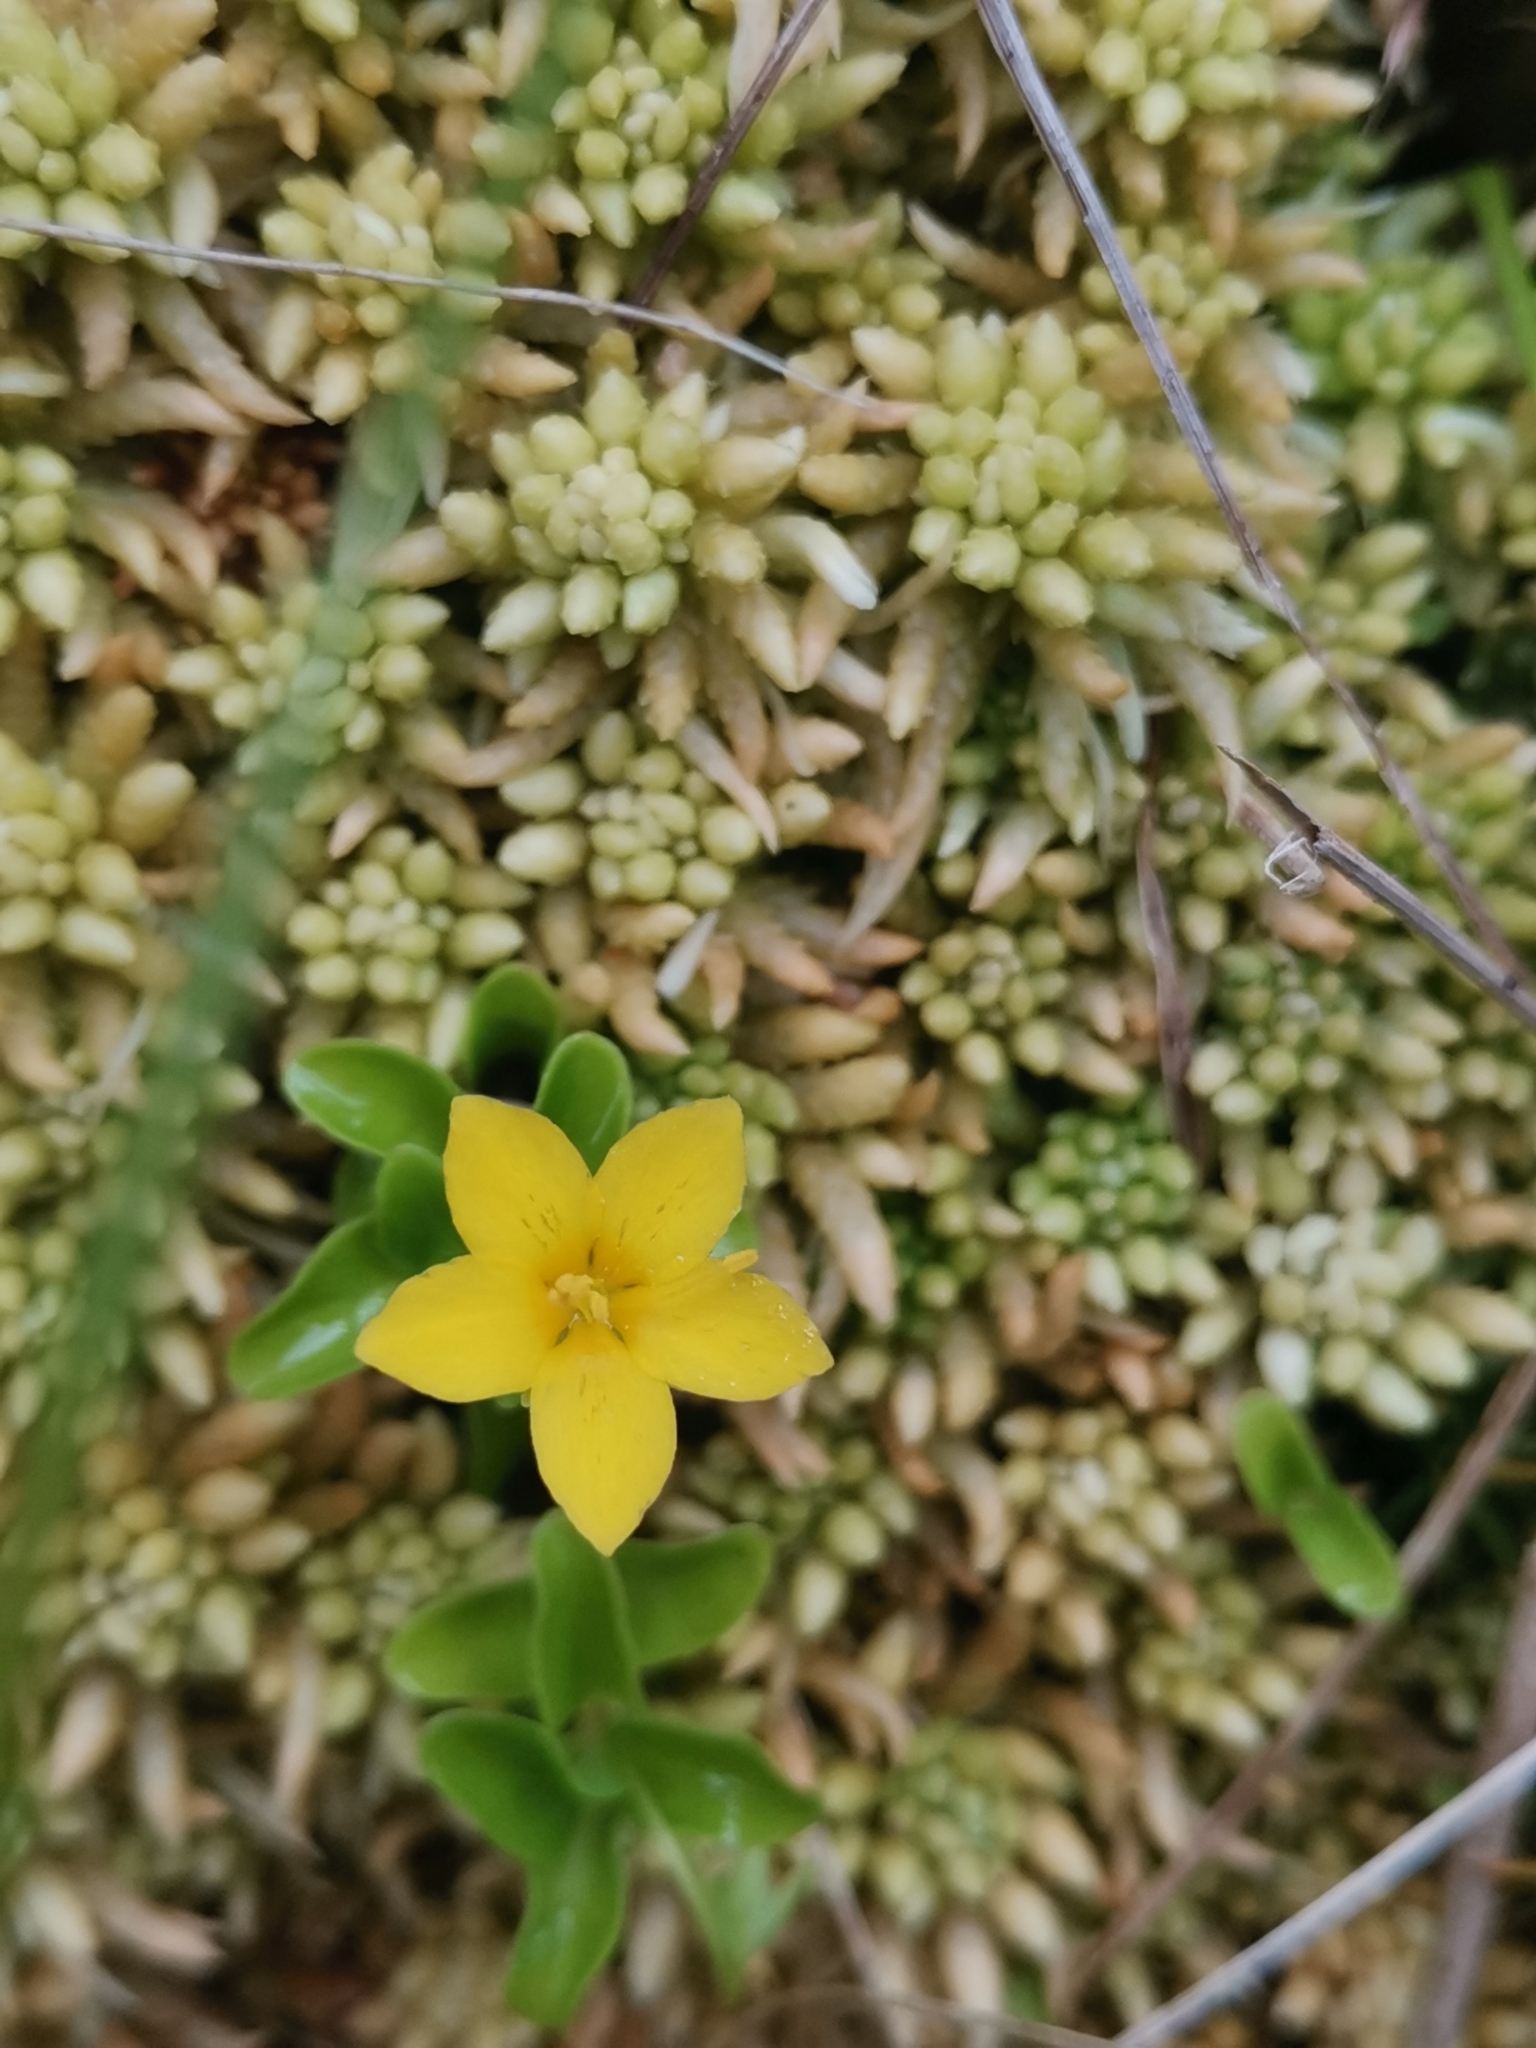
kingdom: Plantae
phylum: Tracheophyta
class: Magnoliopsida
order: Ericales
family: Primulaceae
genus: Lysimachia
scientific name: Lysimachia azorica
